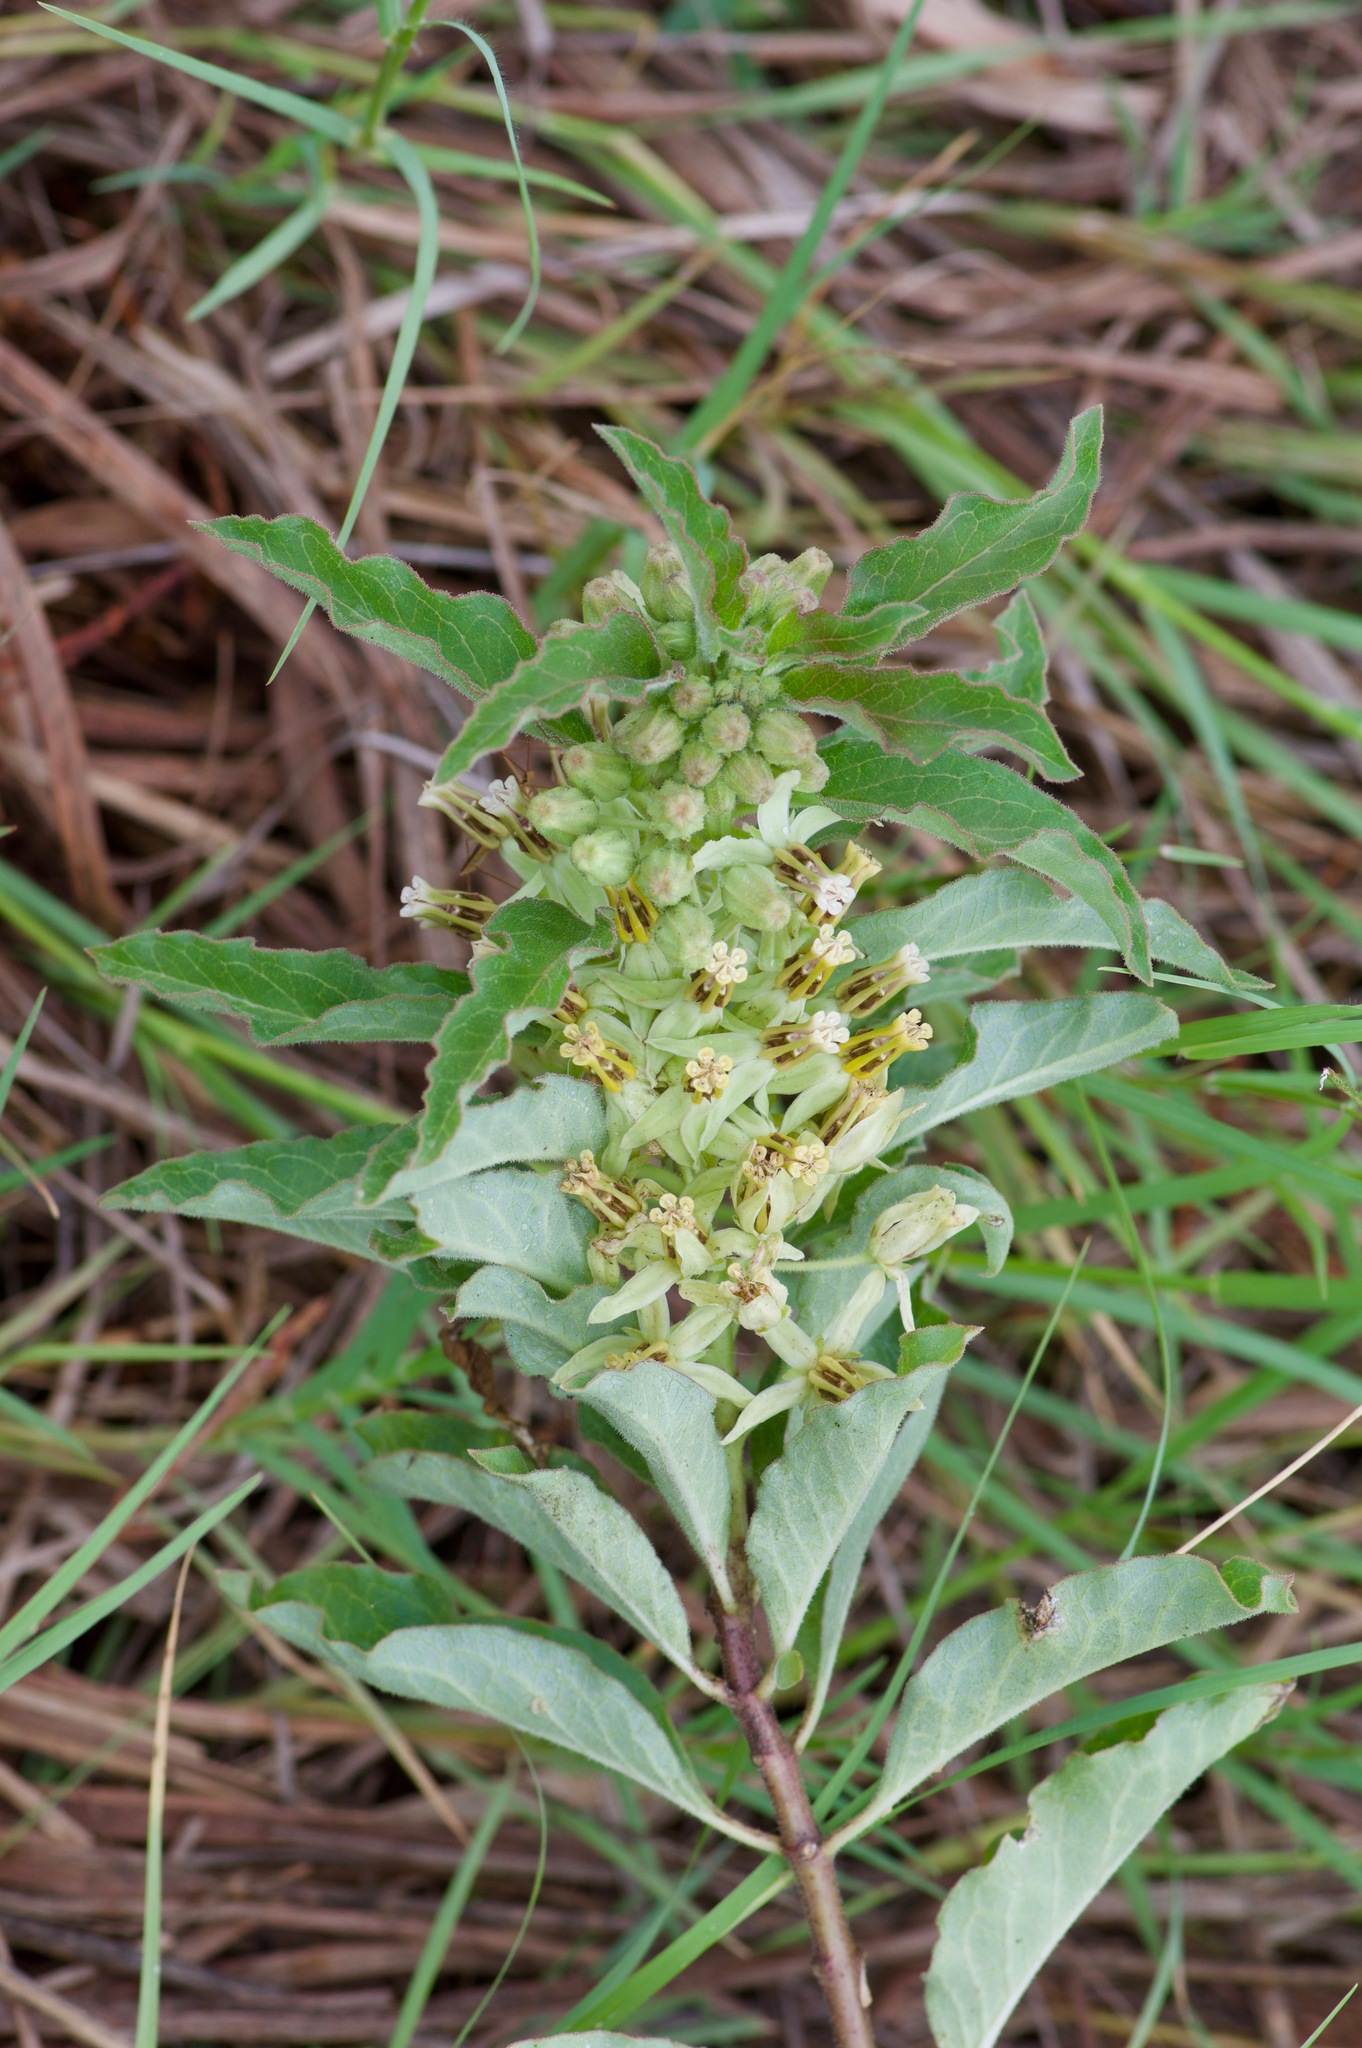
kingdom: Plantae
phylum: Tracheophyta
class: Magnoliopsida
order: Gentianales
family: Apocynaceae
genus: Asclepias
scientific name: Asclepias oenotheroides
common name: Zizotes milkweed
